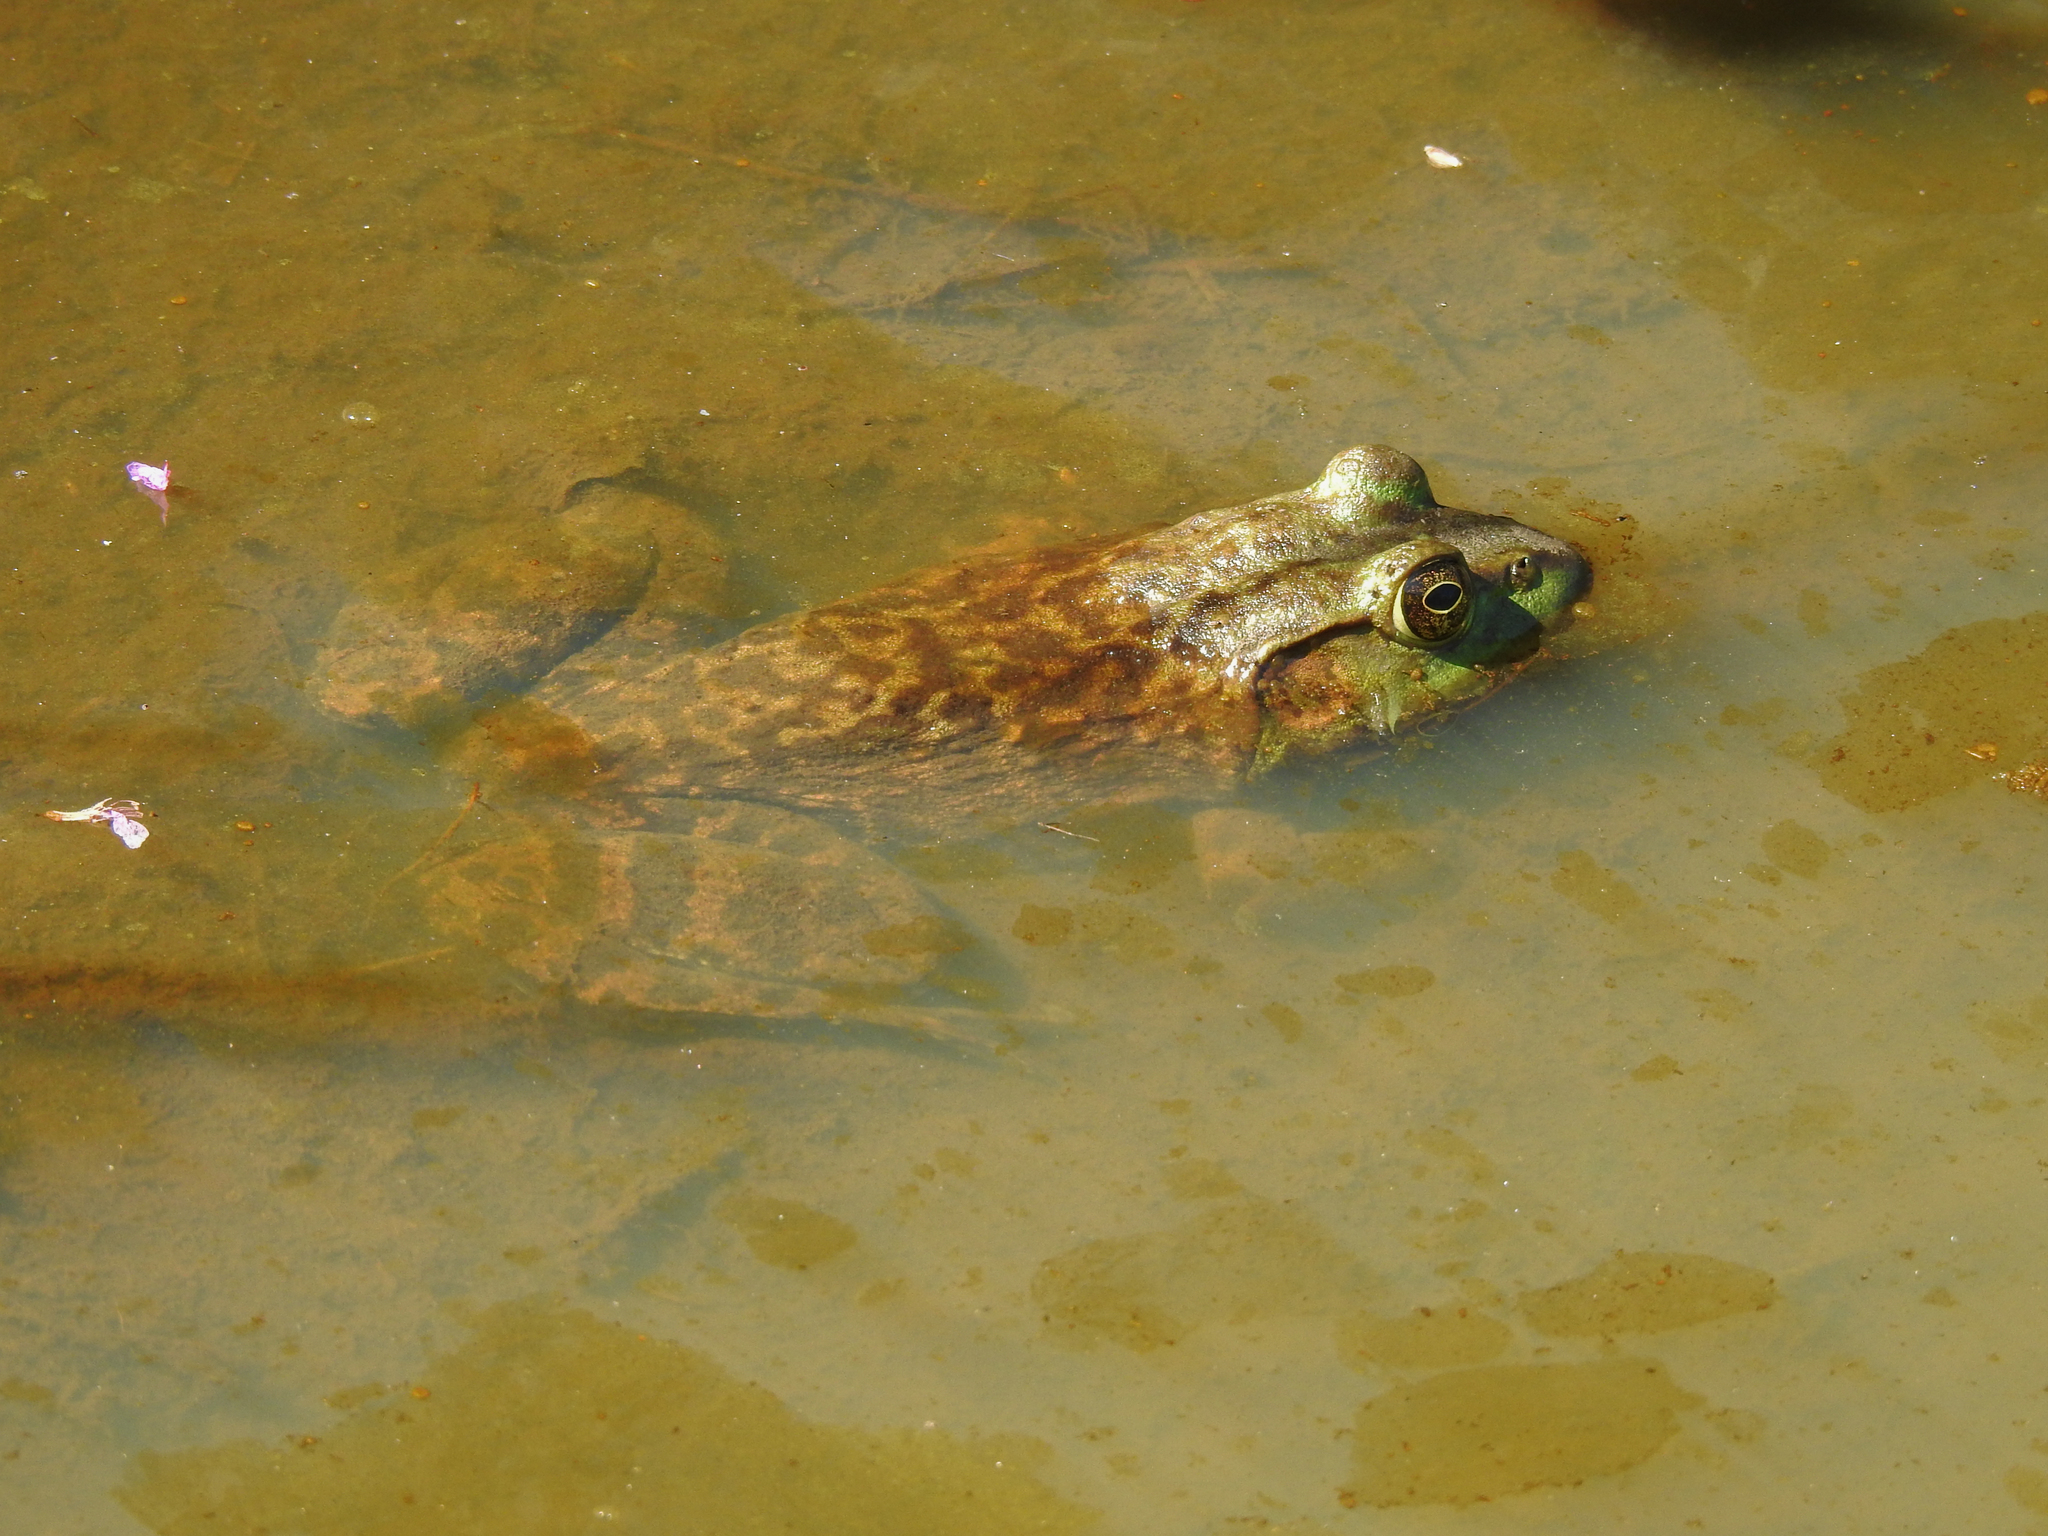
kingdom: Animalia
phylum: Chordata
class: Amphibia
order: Anura
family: Ranidae
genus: Lithobates
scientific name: Lithobates catesbeianus
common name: American bullfrog
